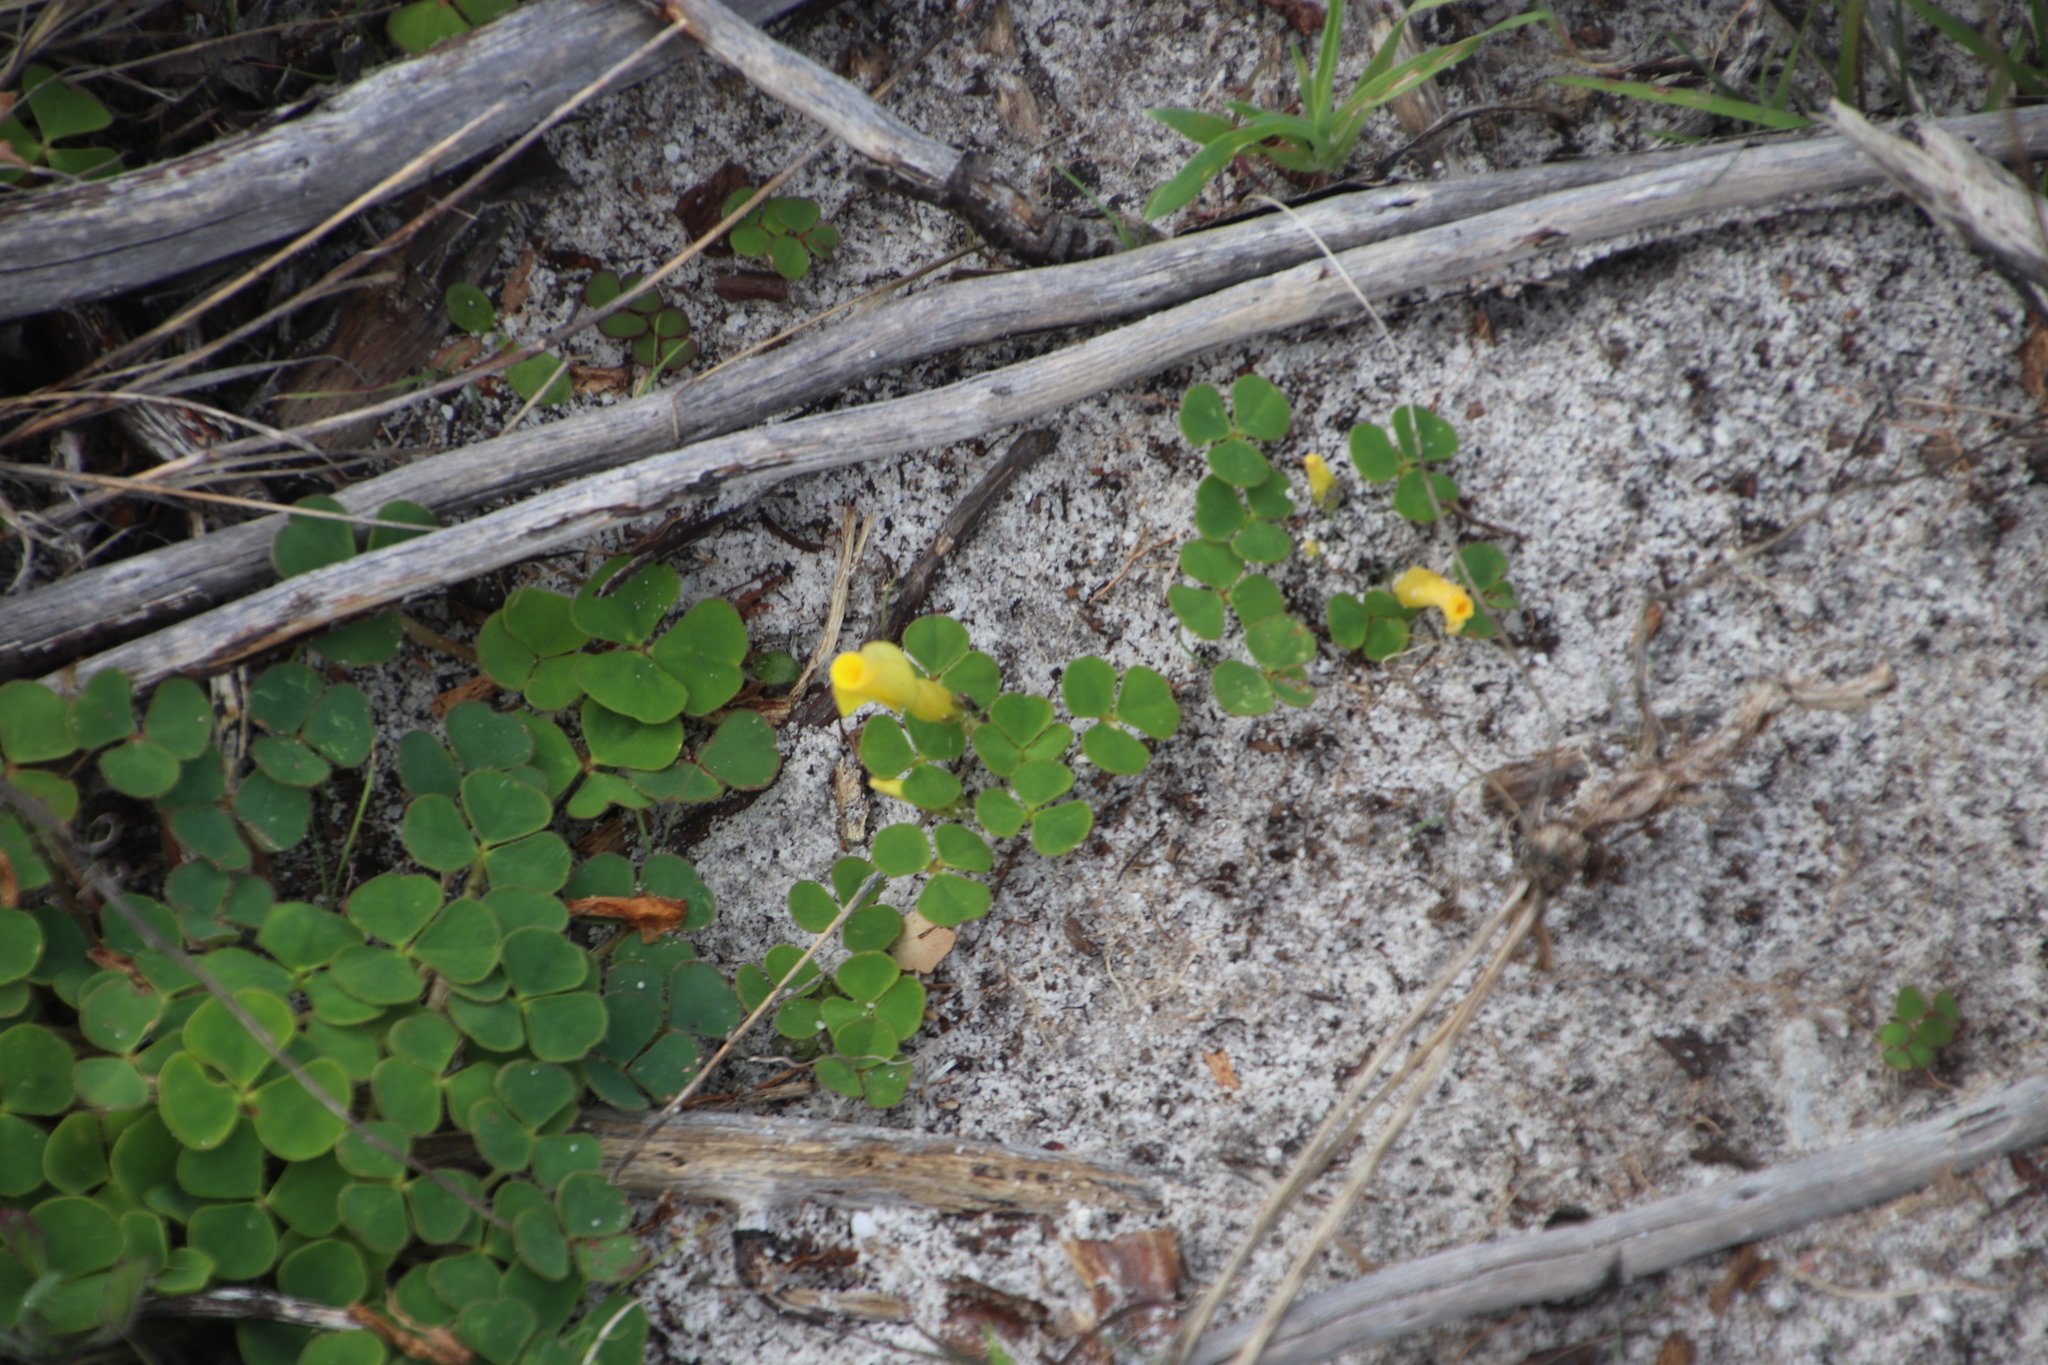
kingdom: Plantae
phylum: Tracheophyta
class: Magnoliopsida
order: Oxalidales
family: Oxalidaceae
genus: Oxalis
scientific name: Oxalis luteola
